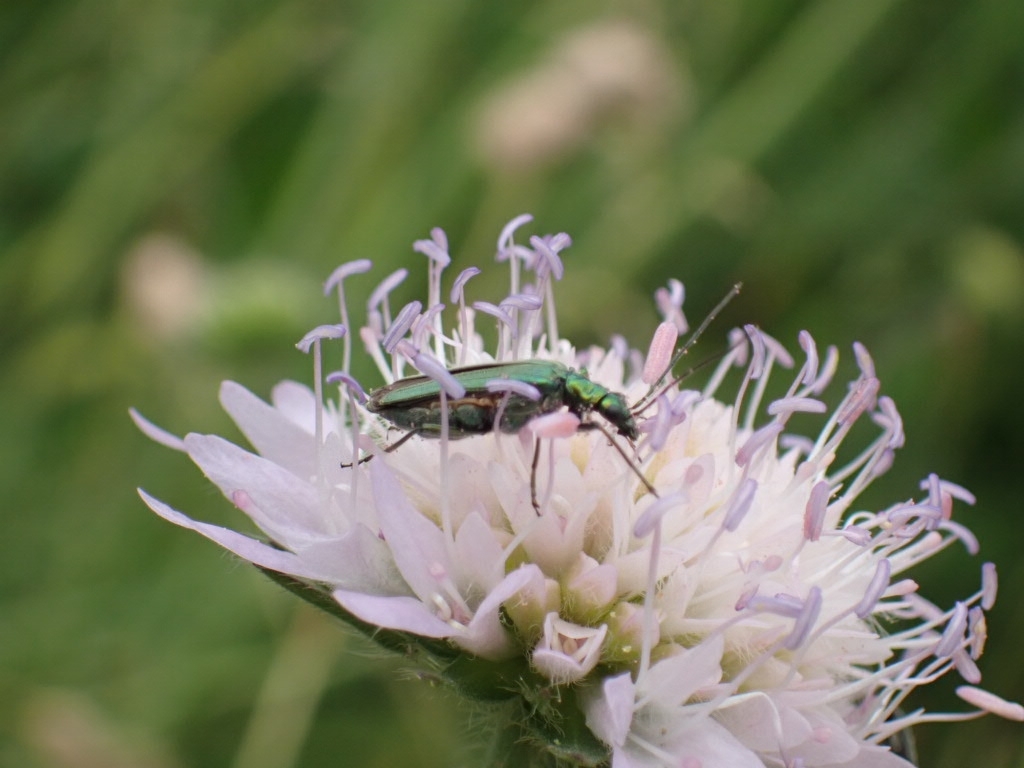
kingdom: Animalia
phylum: Arthropoda
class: Insecta
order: Coleoptera
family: Oedemeridae
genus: Oedemera
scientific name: Oedemera nobilis
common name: Swollen-thighed beetle
